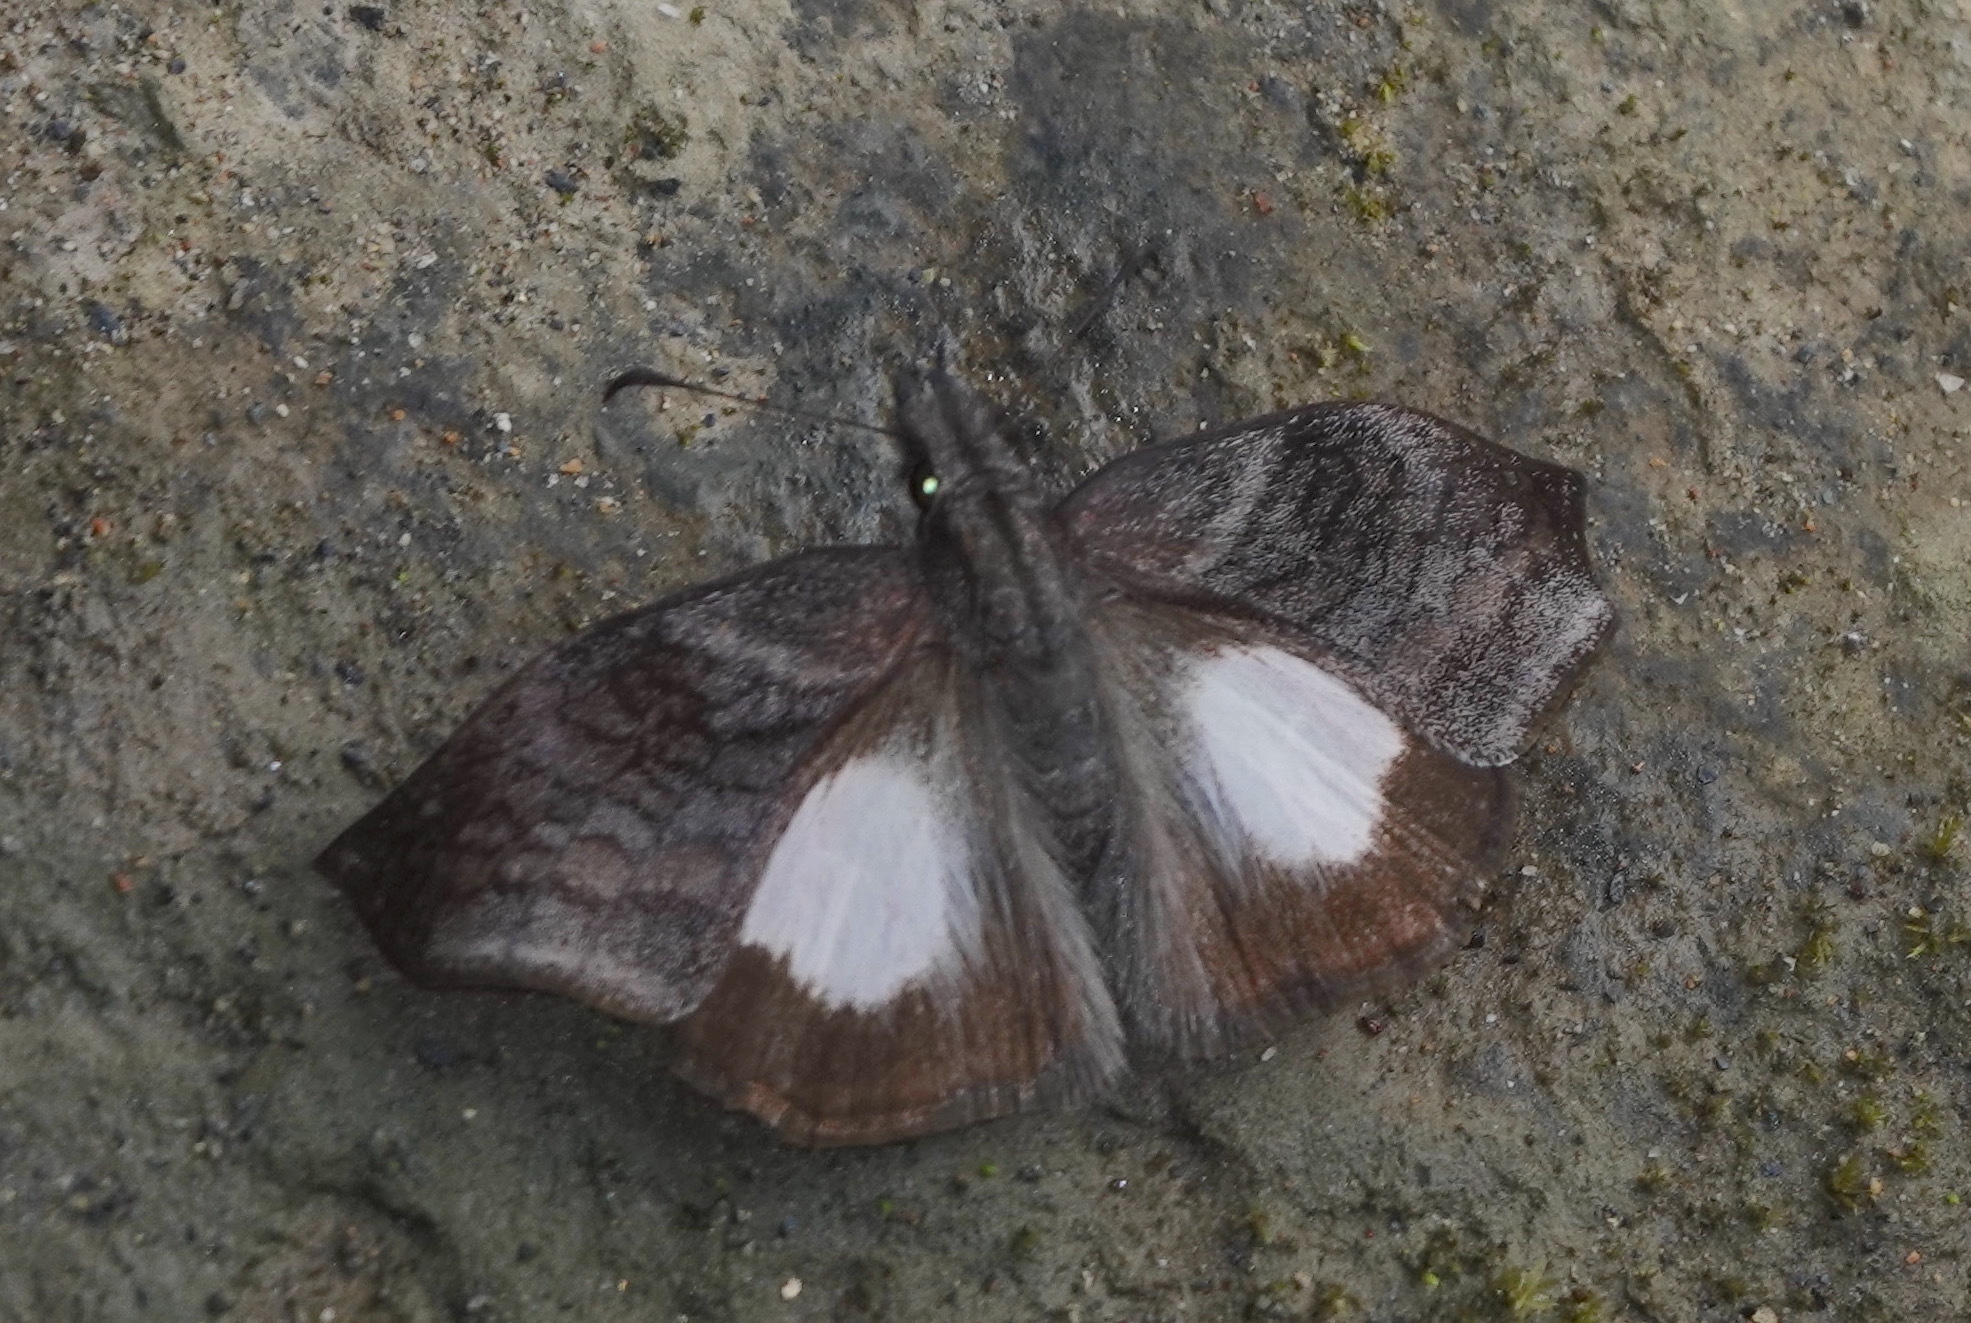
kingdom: Animalia
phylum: Arthropoda
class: Insecta
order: Lepidoptera
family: Hesperiidae
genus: Theagenes
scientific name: Theagenes albiplaga
